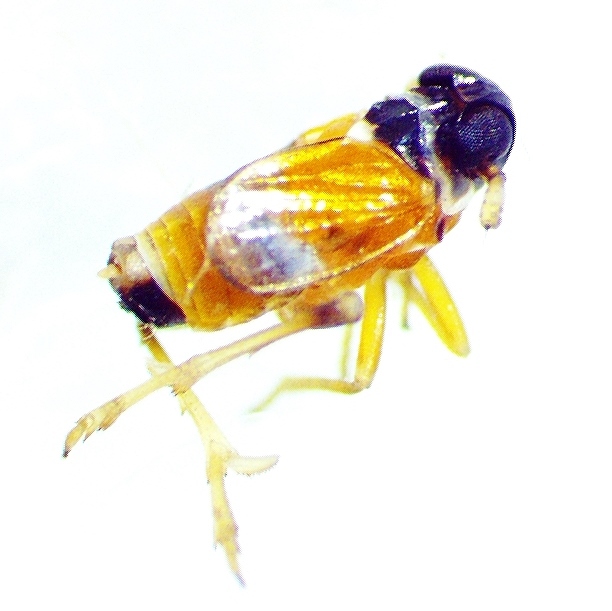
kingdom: Animalia
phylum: Arthropoda
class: Insecta
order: Hemiptera
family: Delphacidae
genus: Flavoclypeus
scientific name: Flavoclypeus andromedus
